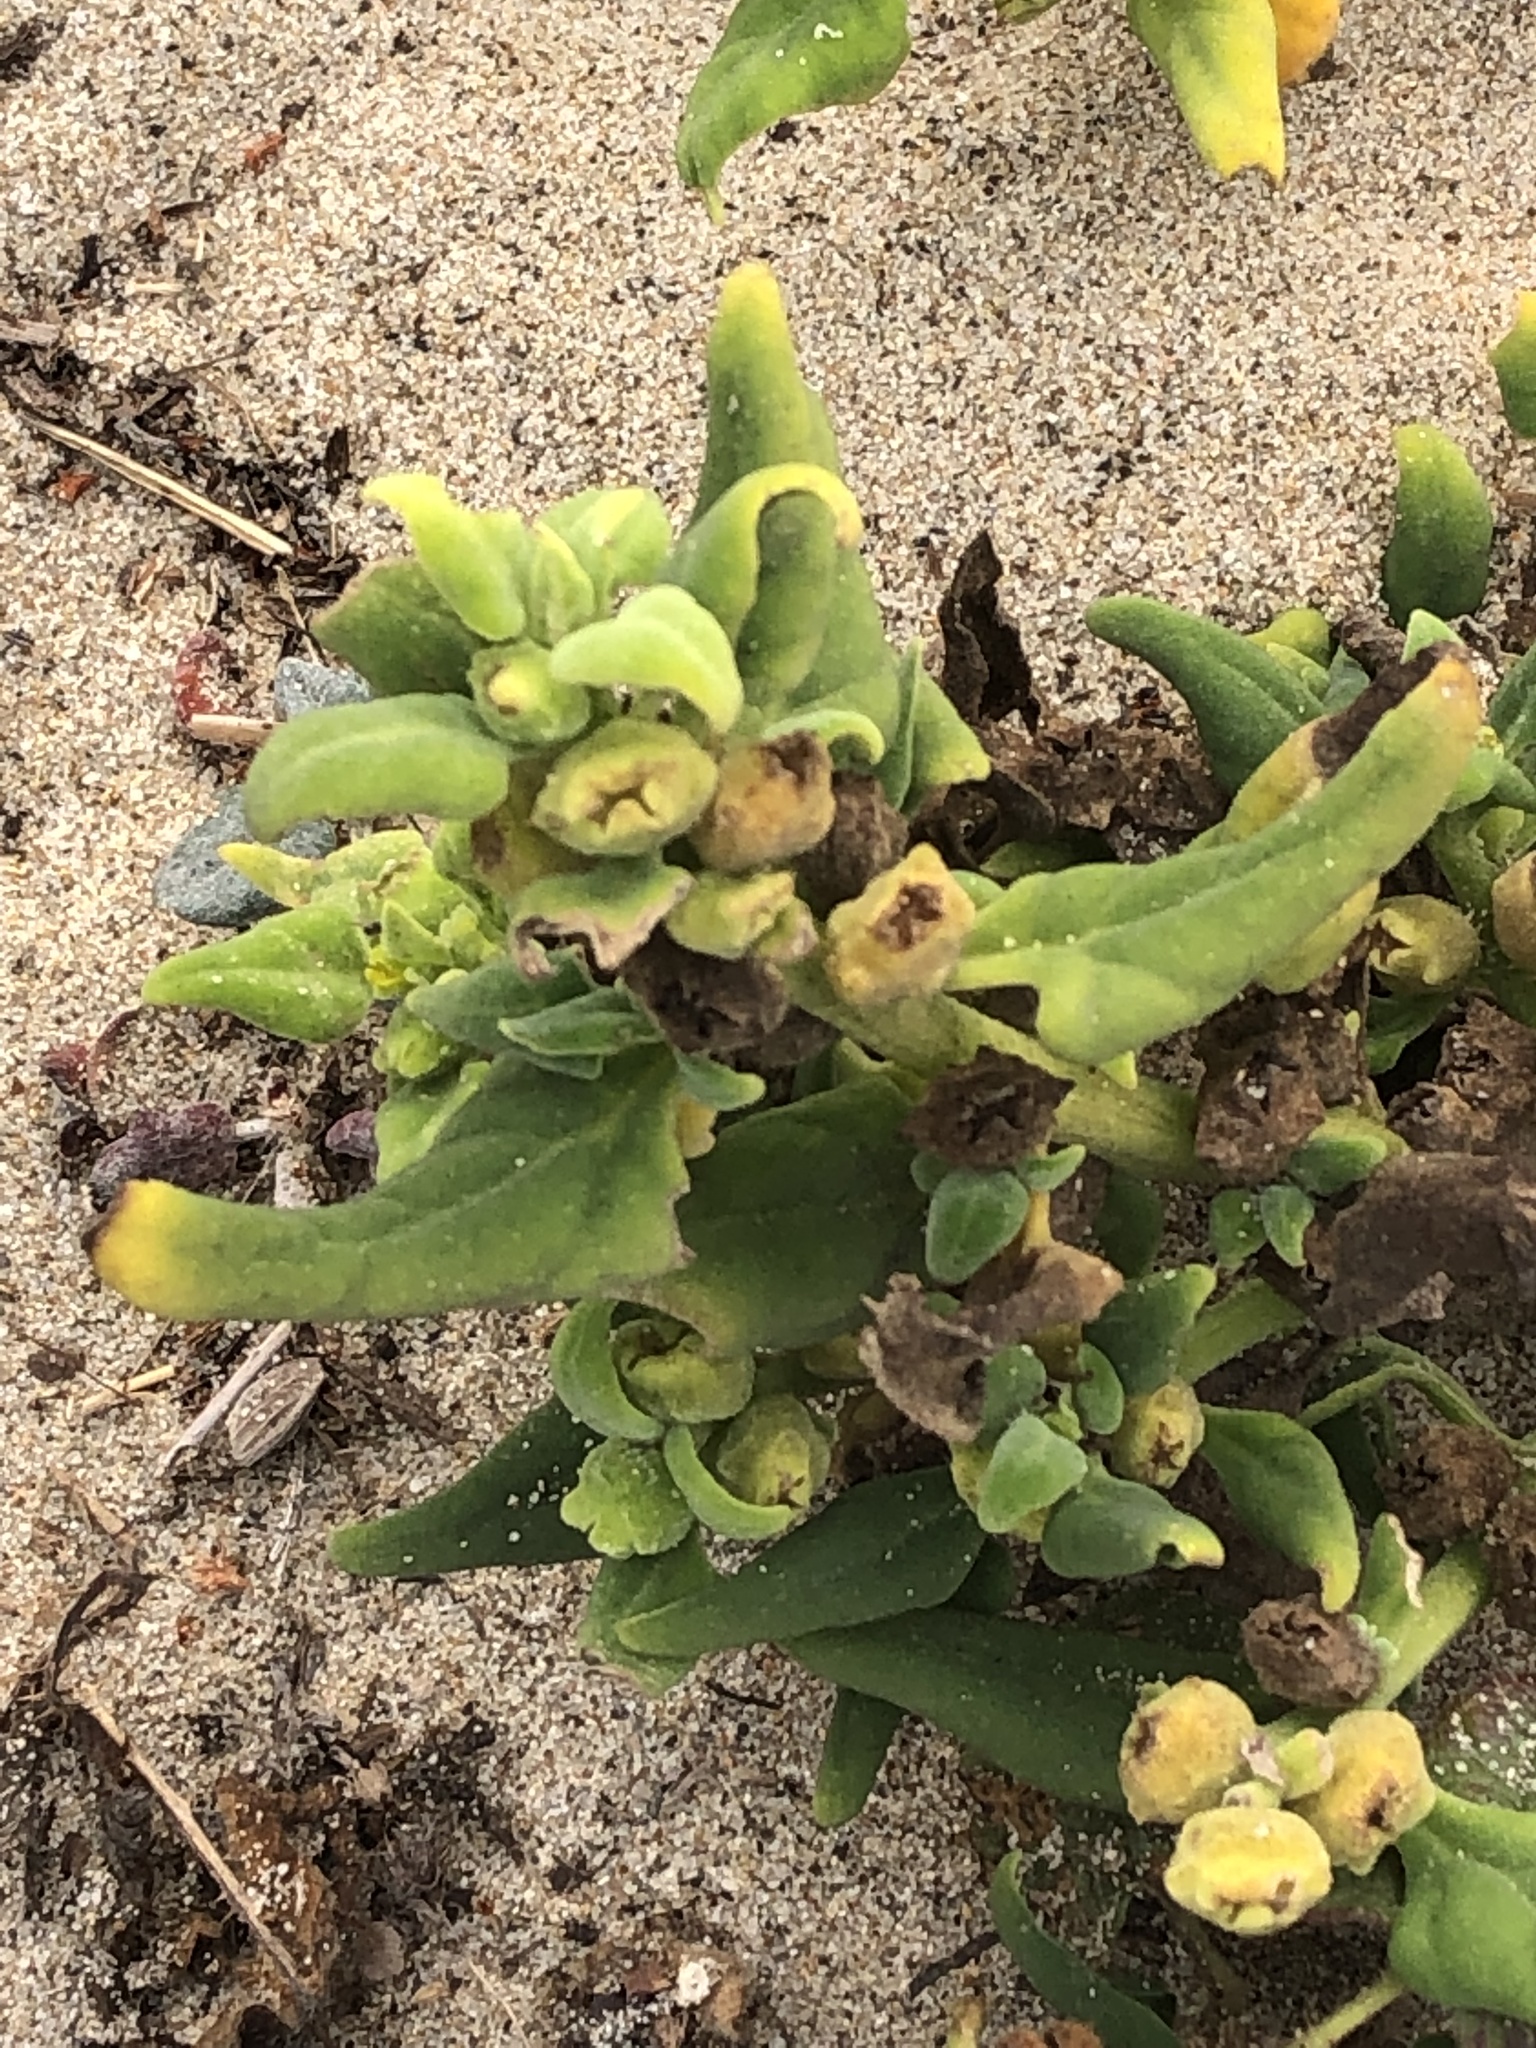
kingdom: Plantae
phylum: Tracheophyta
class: Magnoliopsida
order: Caryophyllales
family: Aizoaceae
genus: Tetragonia
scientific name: Tetragonia tetragonoides
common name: New zealand-spinach
